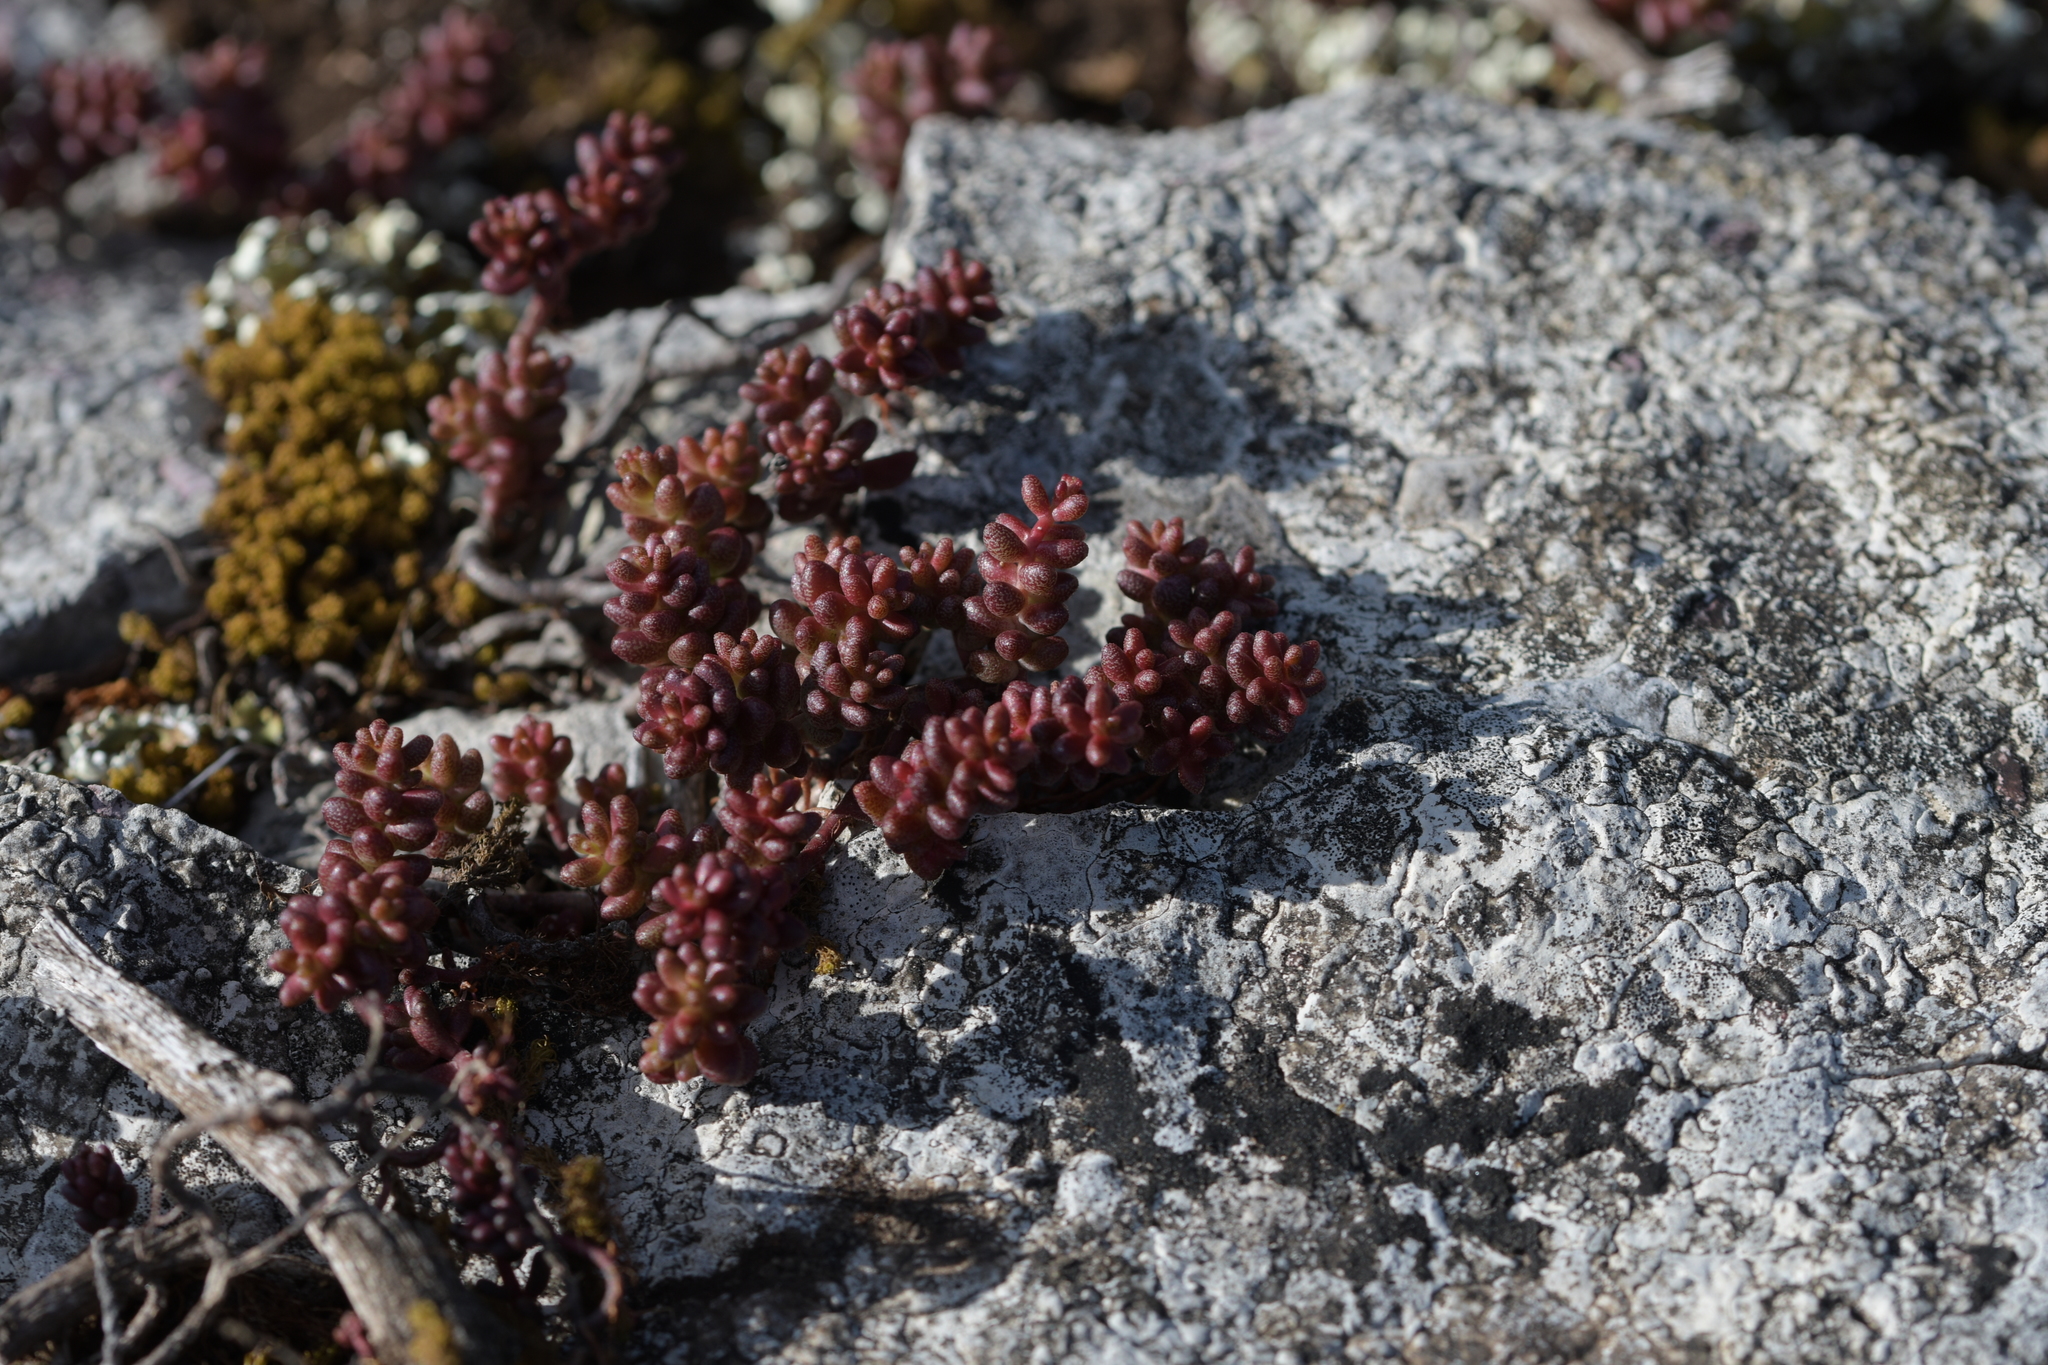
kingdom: Plantae
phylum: Tracheophyta
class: Magnoliopsida
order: Saxifragales
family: Crassulaceae
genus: Sedum
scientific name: Sedum album
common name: White stonecrop
